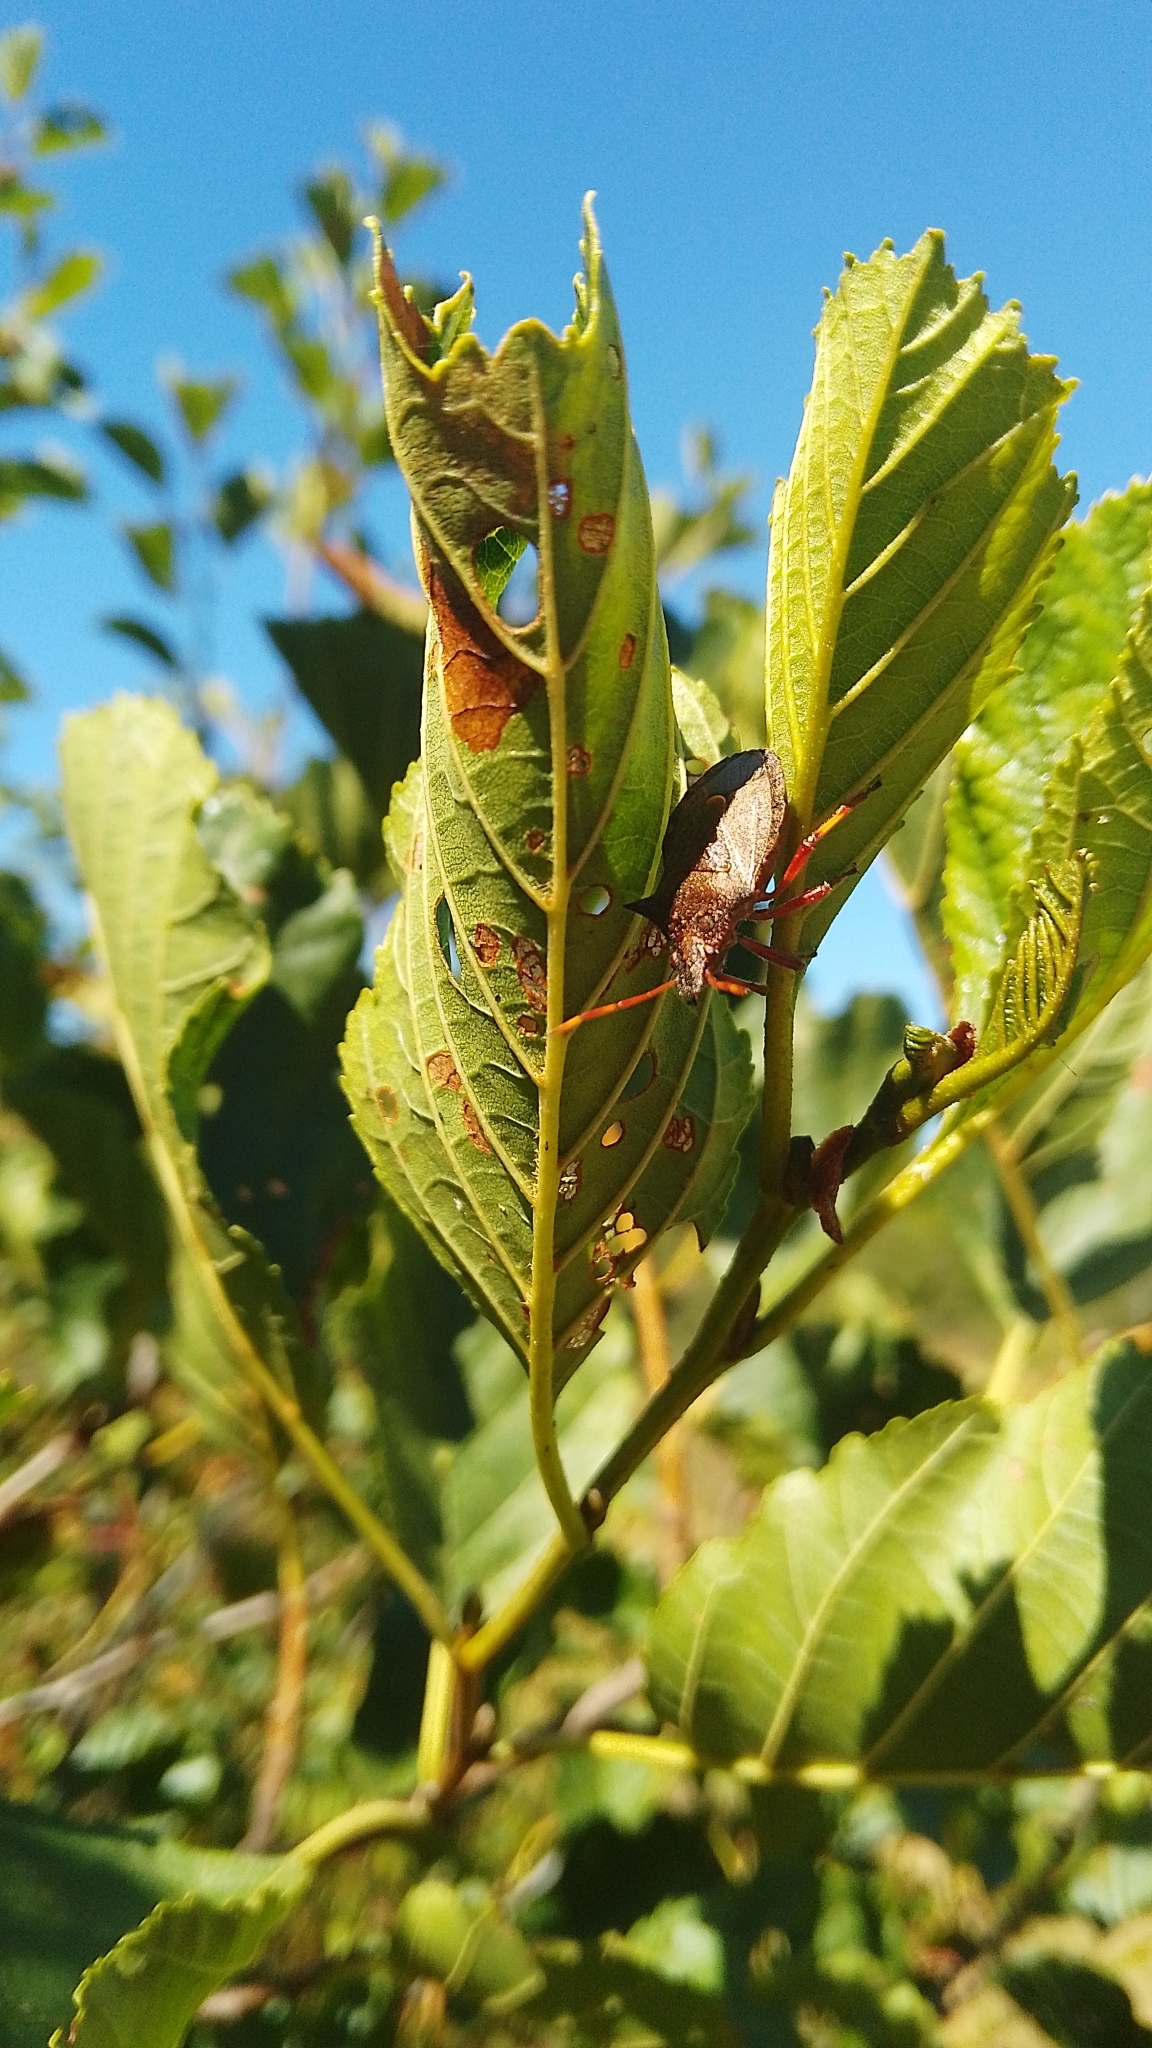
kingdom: Animalia
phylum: Arthropoda
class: Insecta
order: Hemiptera
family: Pentatomidae
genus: Picromerus
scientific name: Picromerus bidens
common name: Spiked shieldbug
